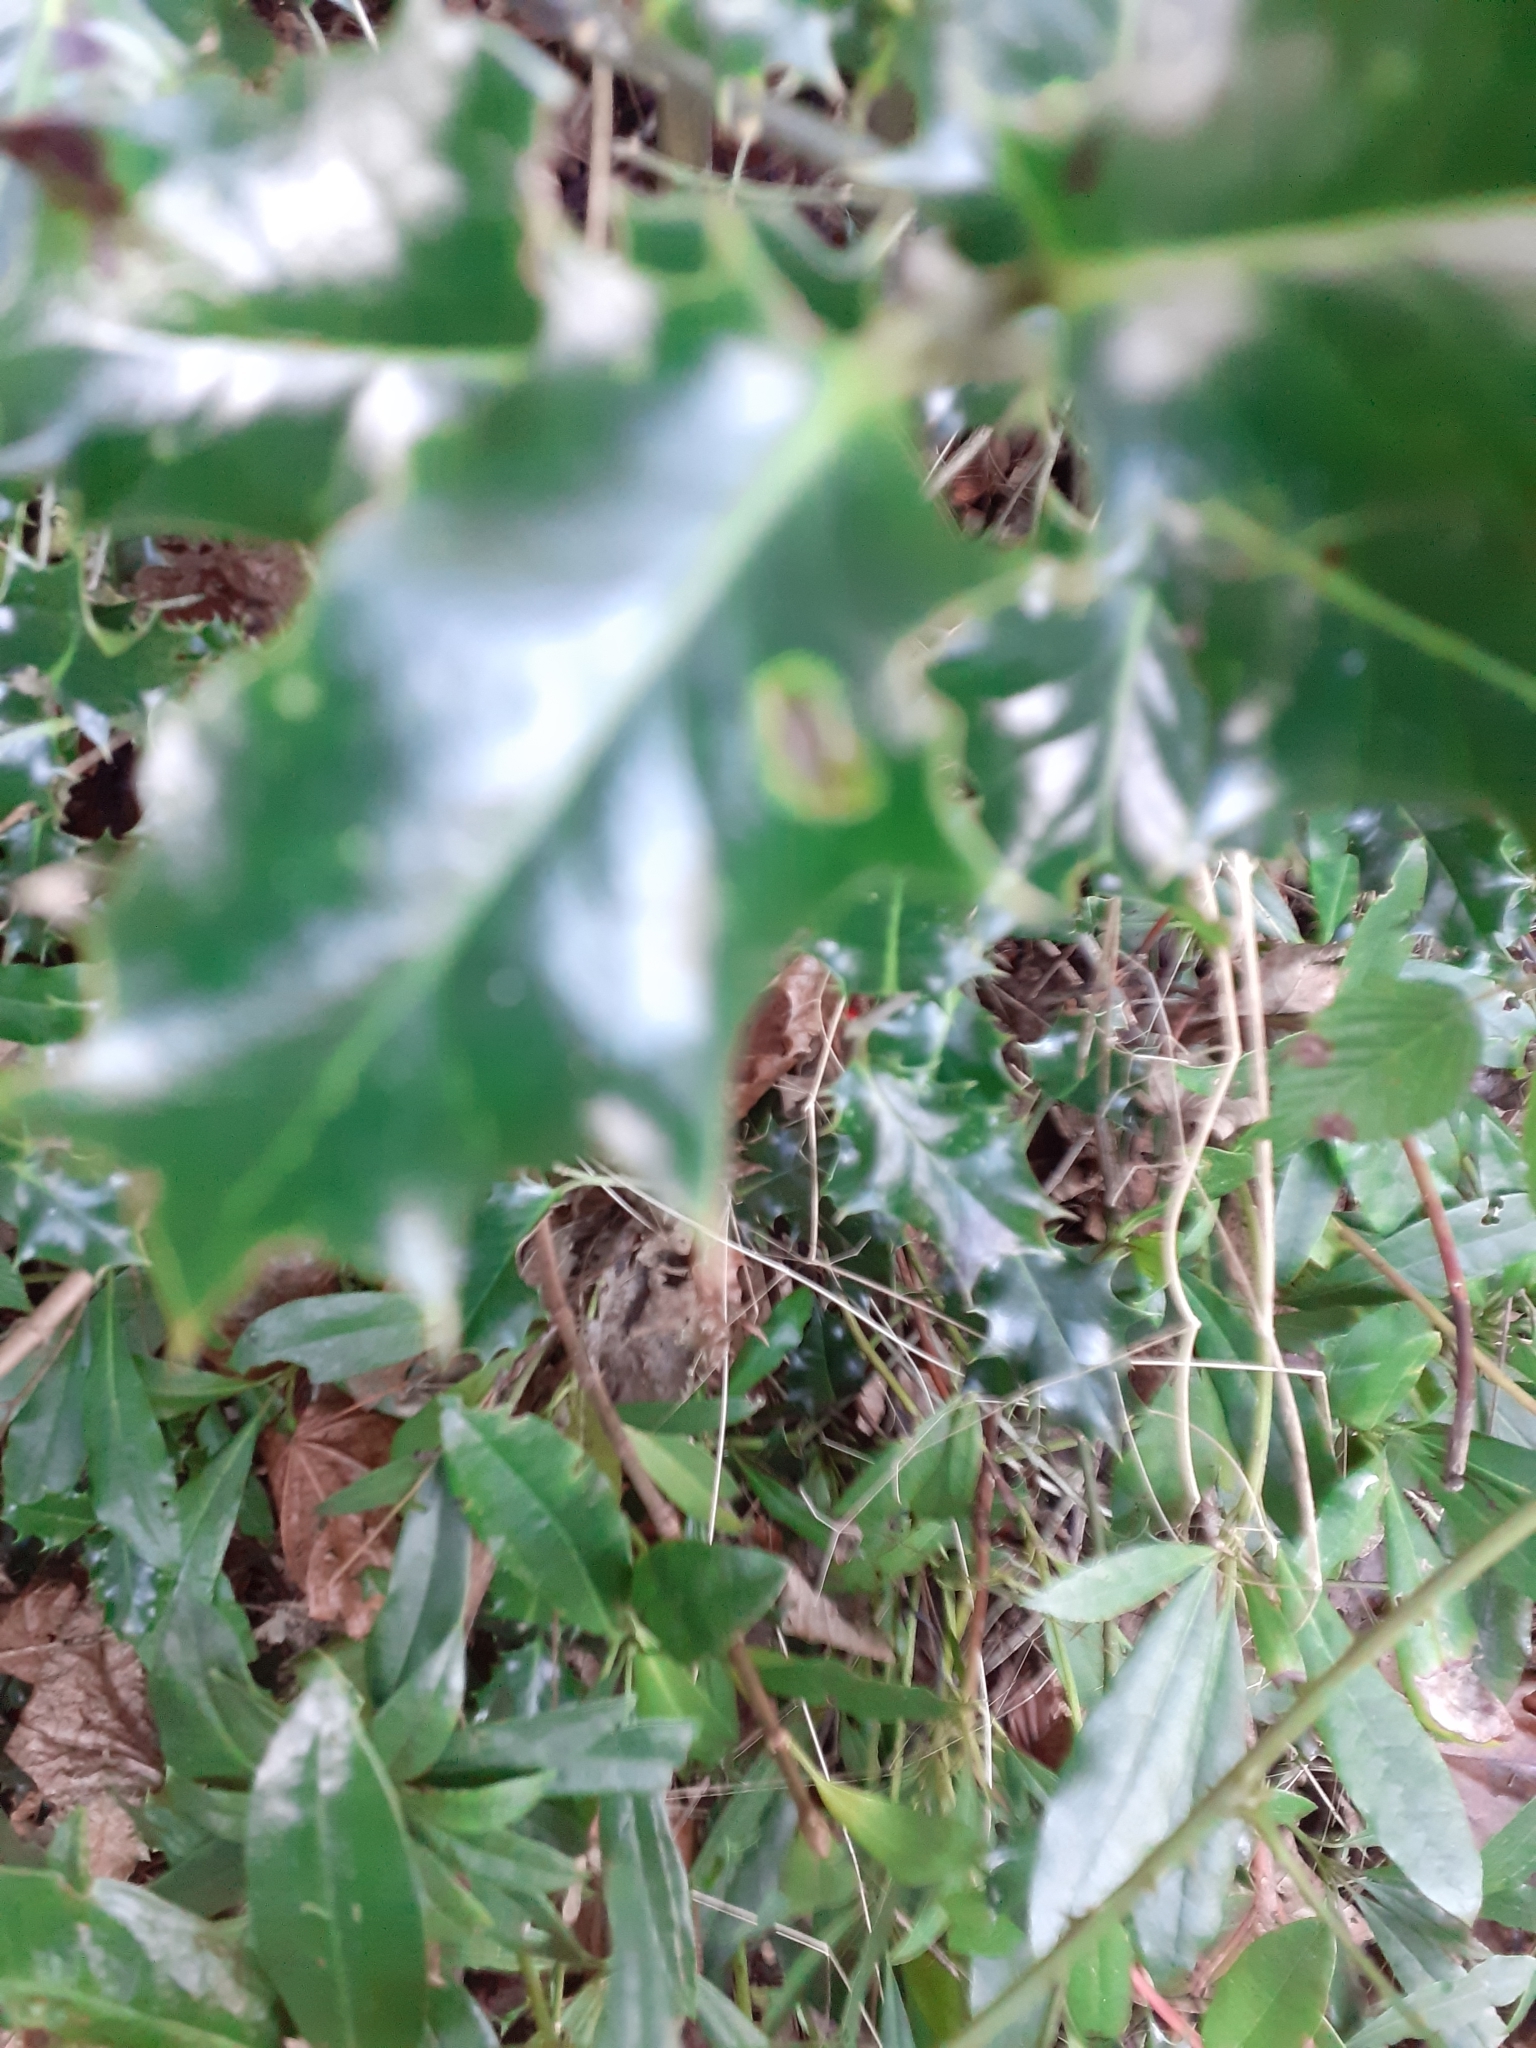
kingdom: Animalia
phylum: Arthropoda
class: Insecta
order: Diptera
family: Agromyzidae
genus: Phytomyza
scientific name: Phytomyza ilicis
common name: Holly leafminer
